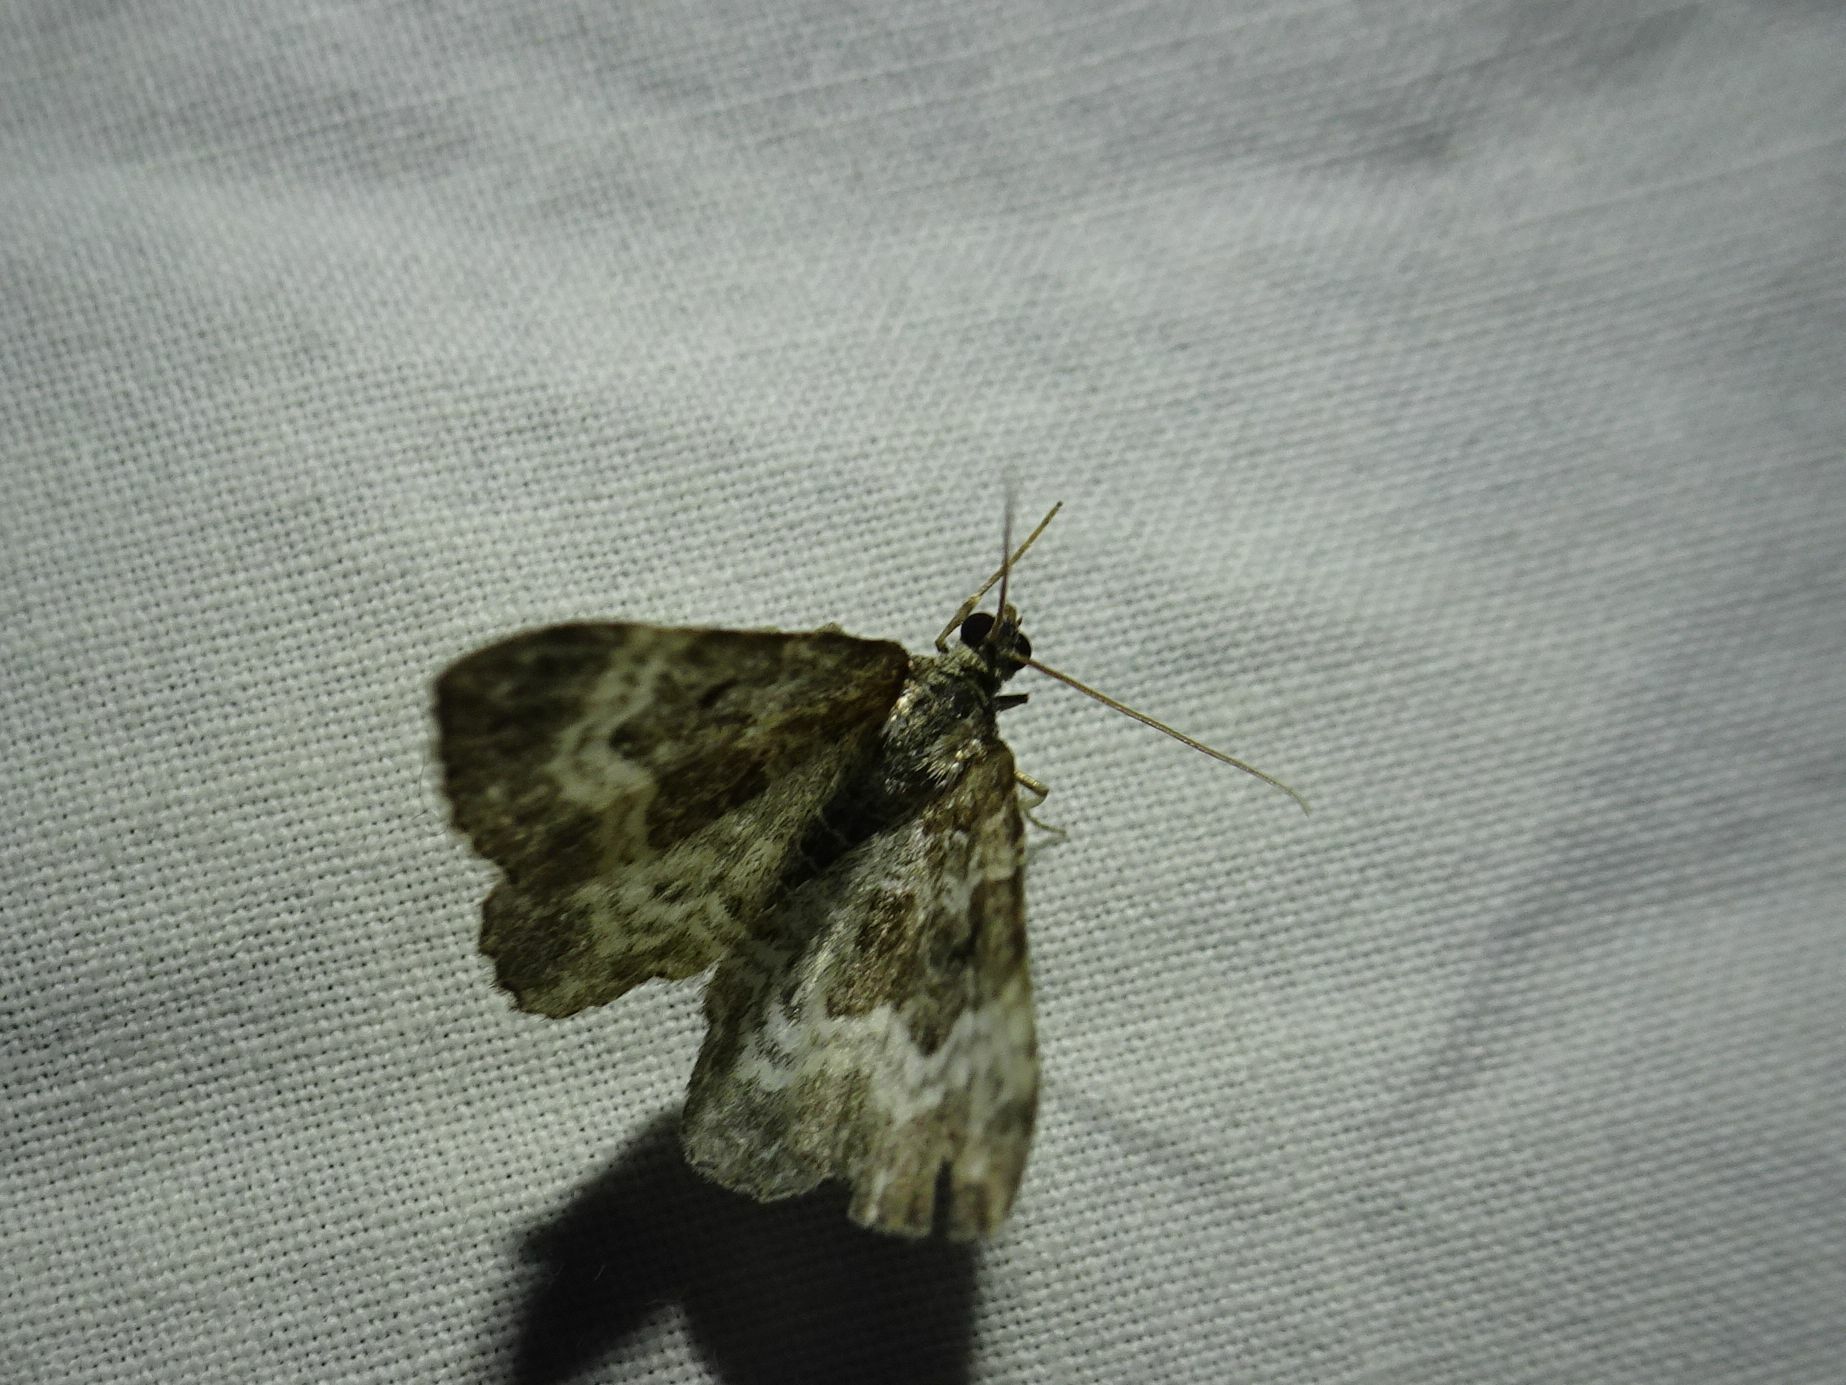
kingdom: Animalia
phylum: Arthropoda
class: Insecta
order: Lepidoptera
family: Geometridae
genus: Epirrhoe
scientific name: Epirrhoe alternata
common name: Common carpet
